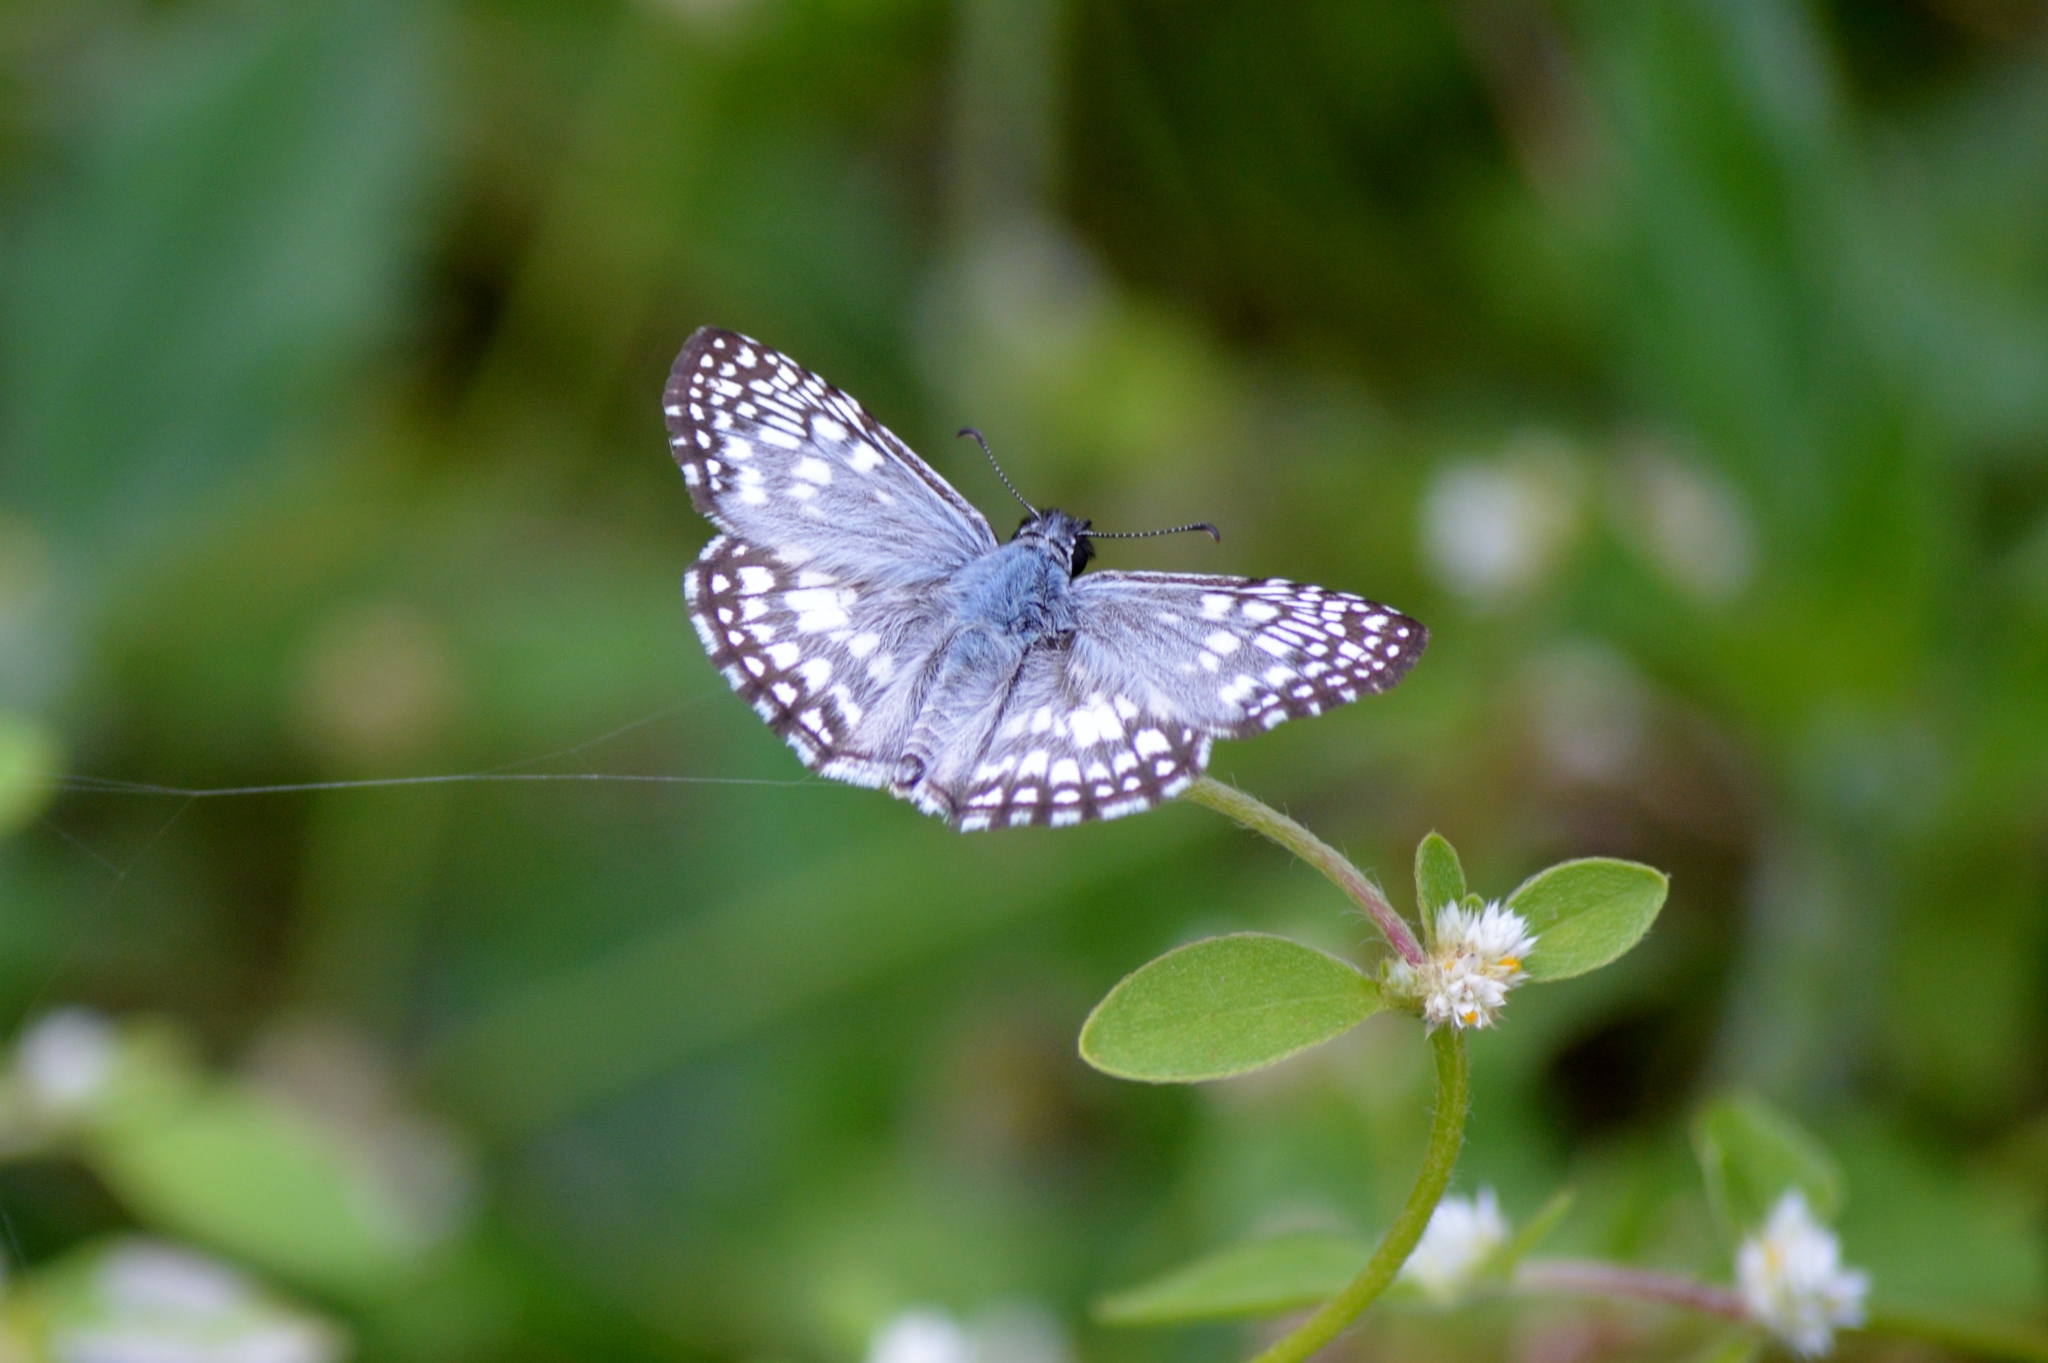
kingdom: Animalia
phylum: Arthropoda
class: Insecta
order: Lepidoptera
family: Hesperiidae
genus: Pyrgus
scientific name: Pyrgus oileus
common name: Tropical checkered-skipper
